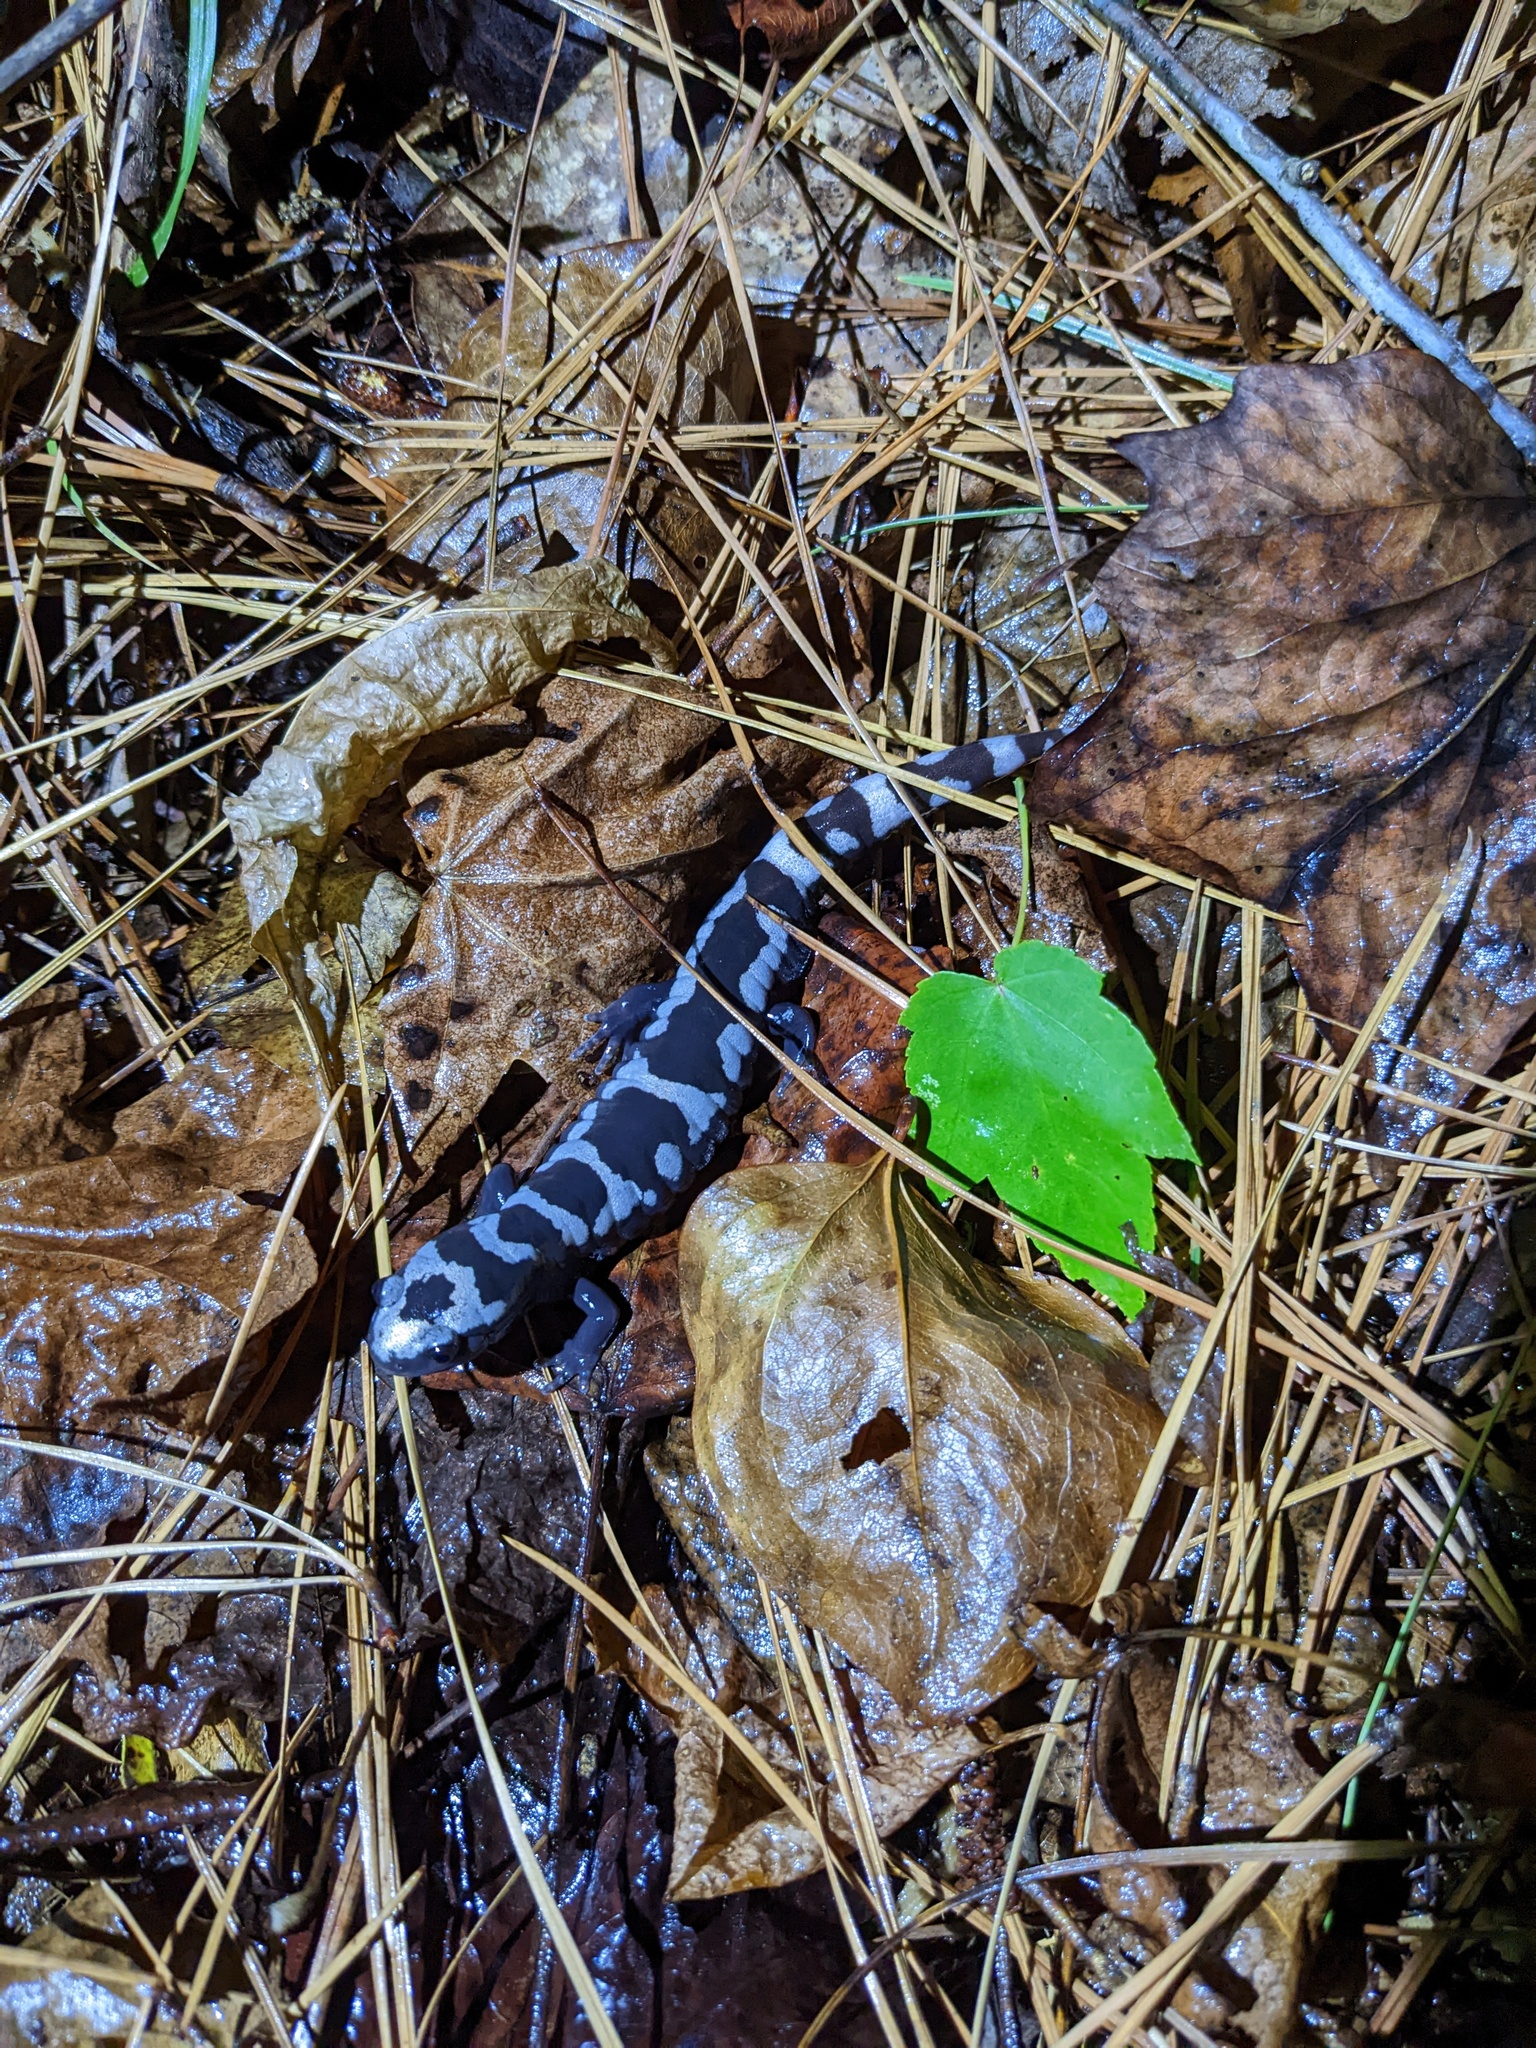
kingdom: Animalia
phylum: Chordata
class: Amphibia
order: Caudata
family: Ambystomatidae
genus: Ambystoma
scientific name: Ambystoma opacum
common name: Marbled salamander
